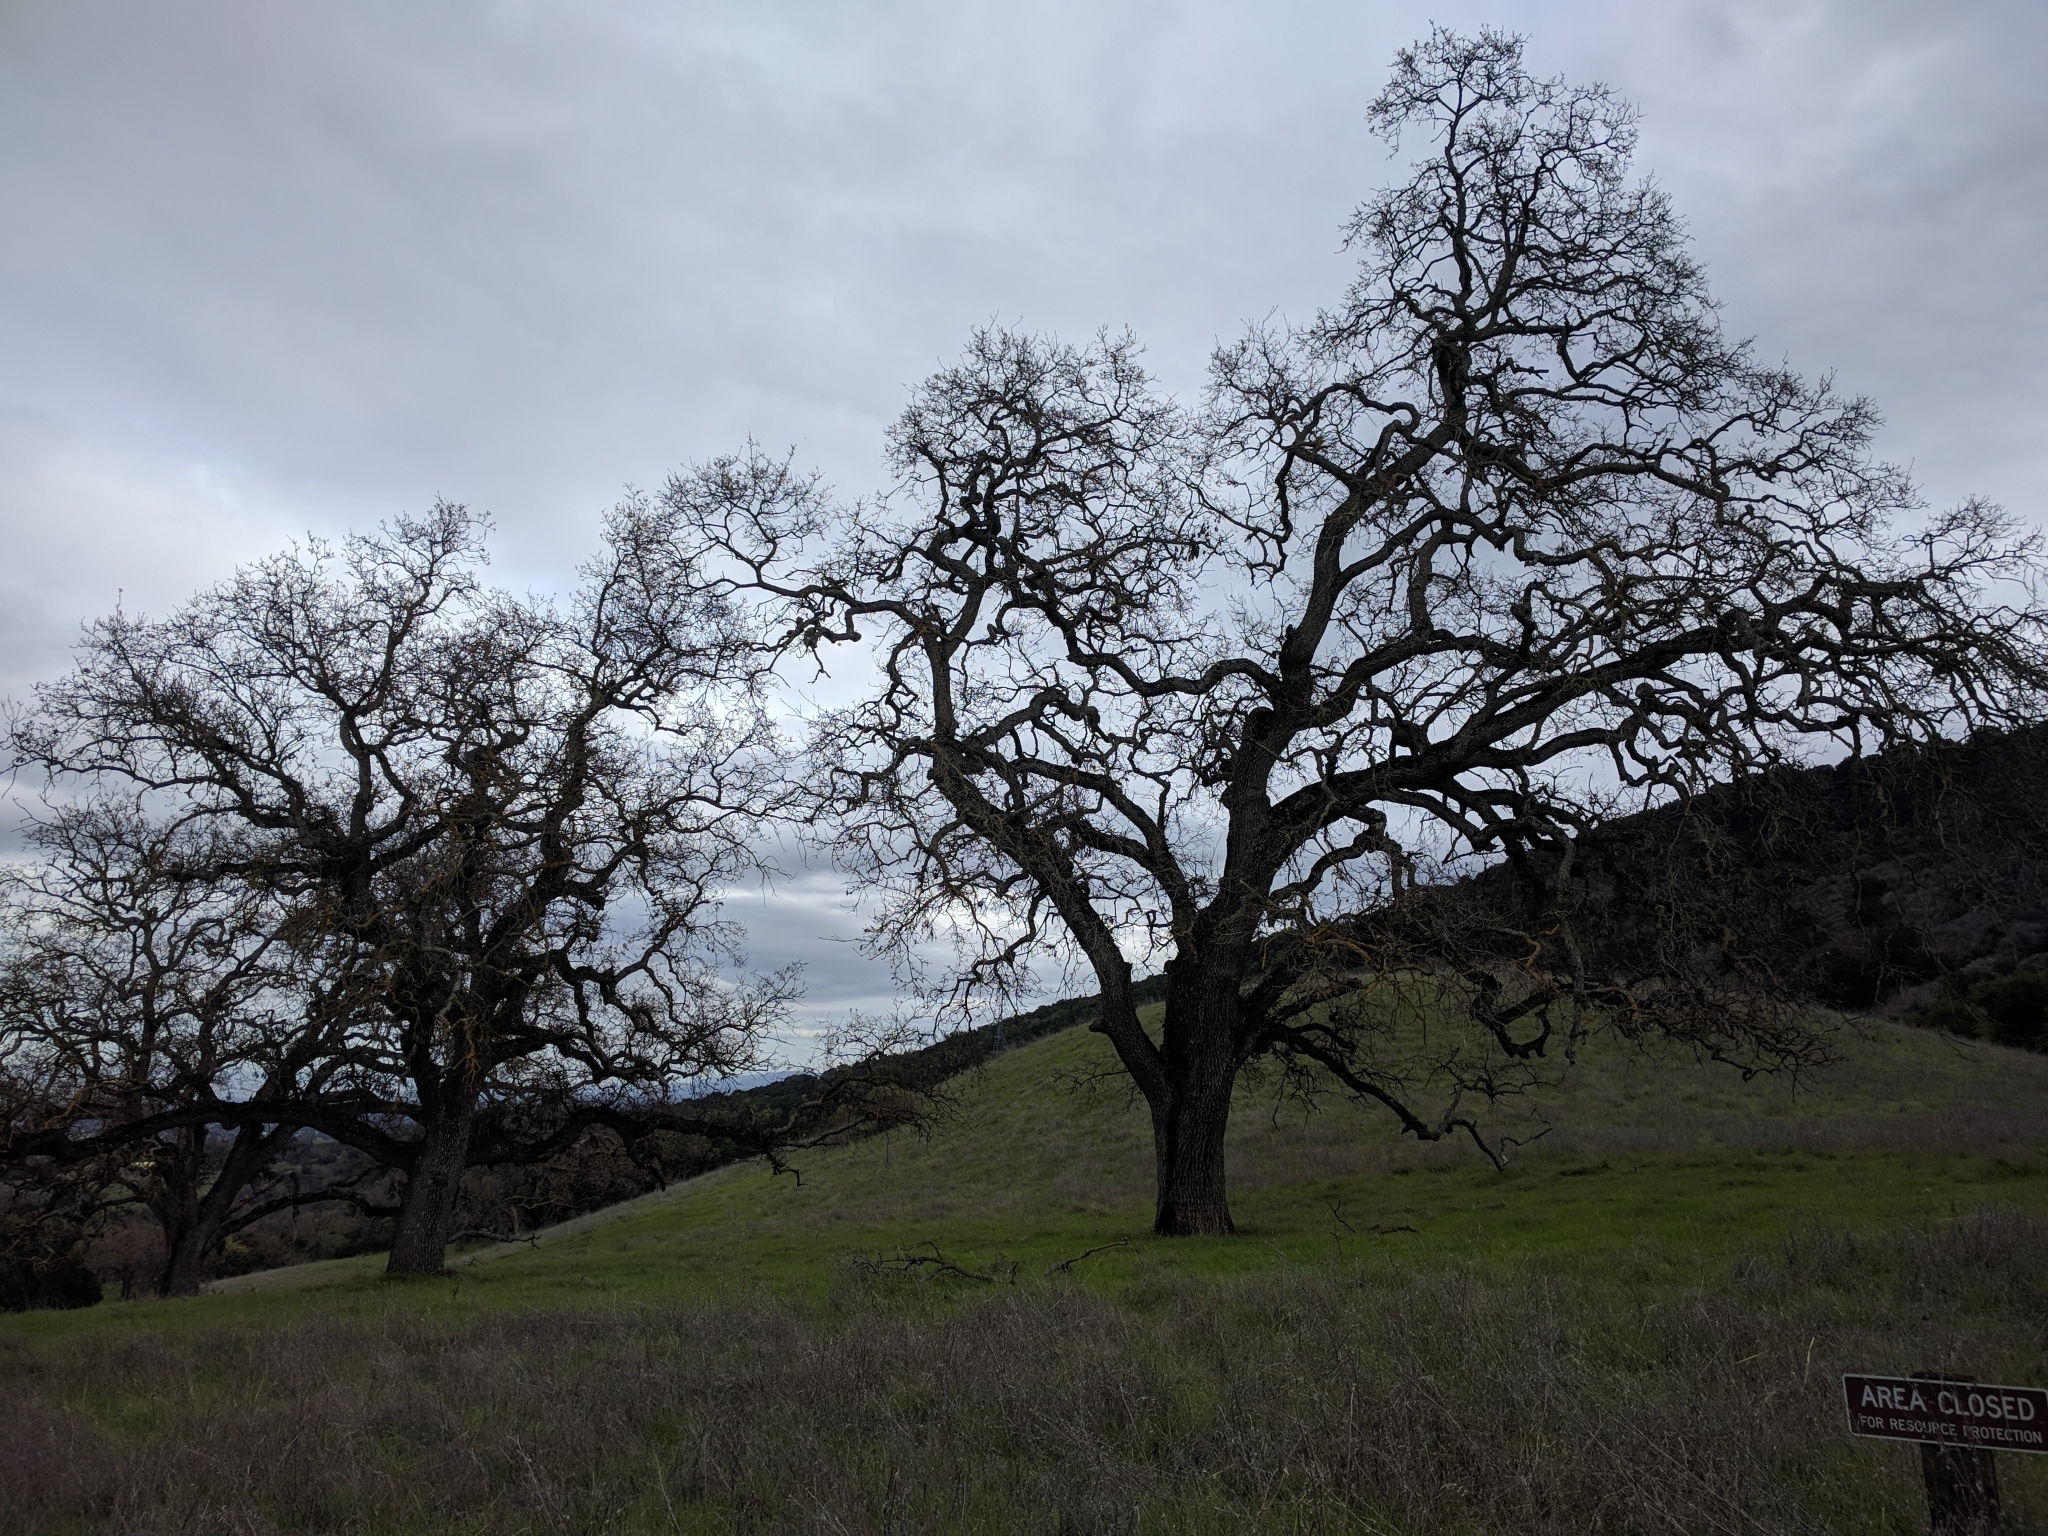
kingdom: Plantae
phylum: Tracheophyta
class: Magnoliopsida
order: Fagales
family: Fagaceae
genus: Quercus
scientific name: Quercus lobata
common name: Valley oak
